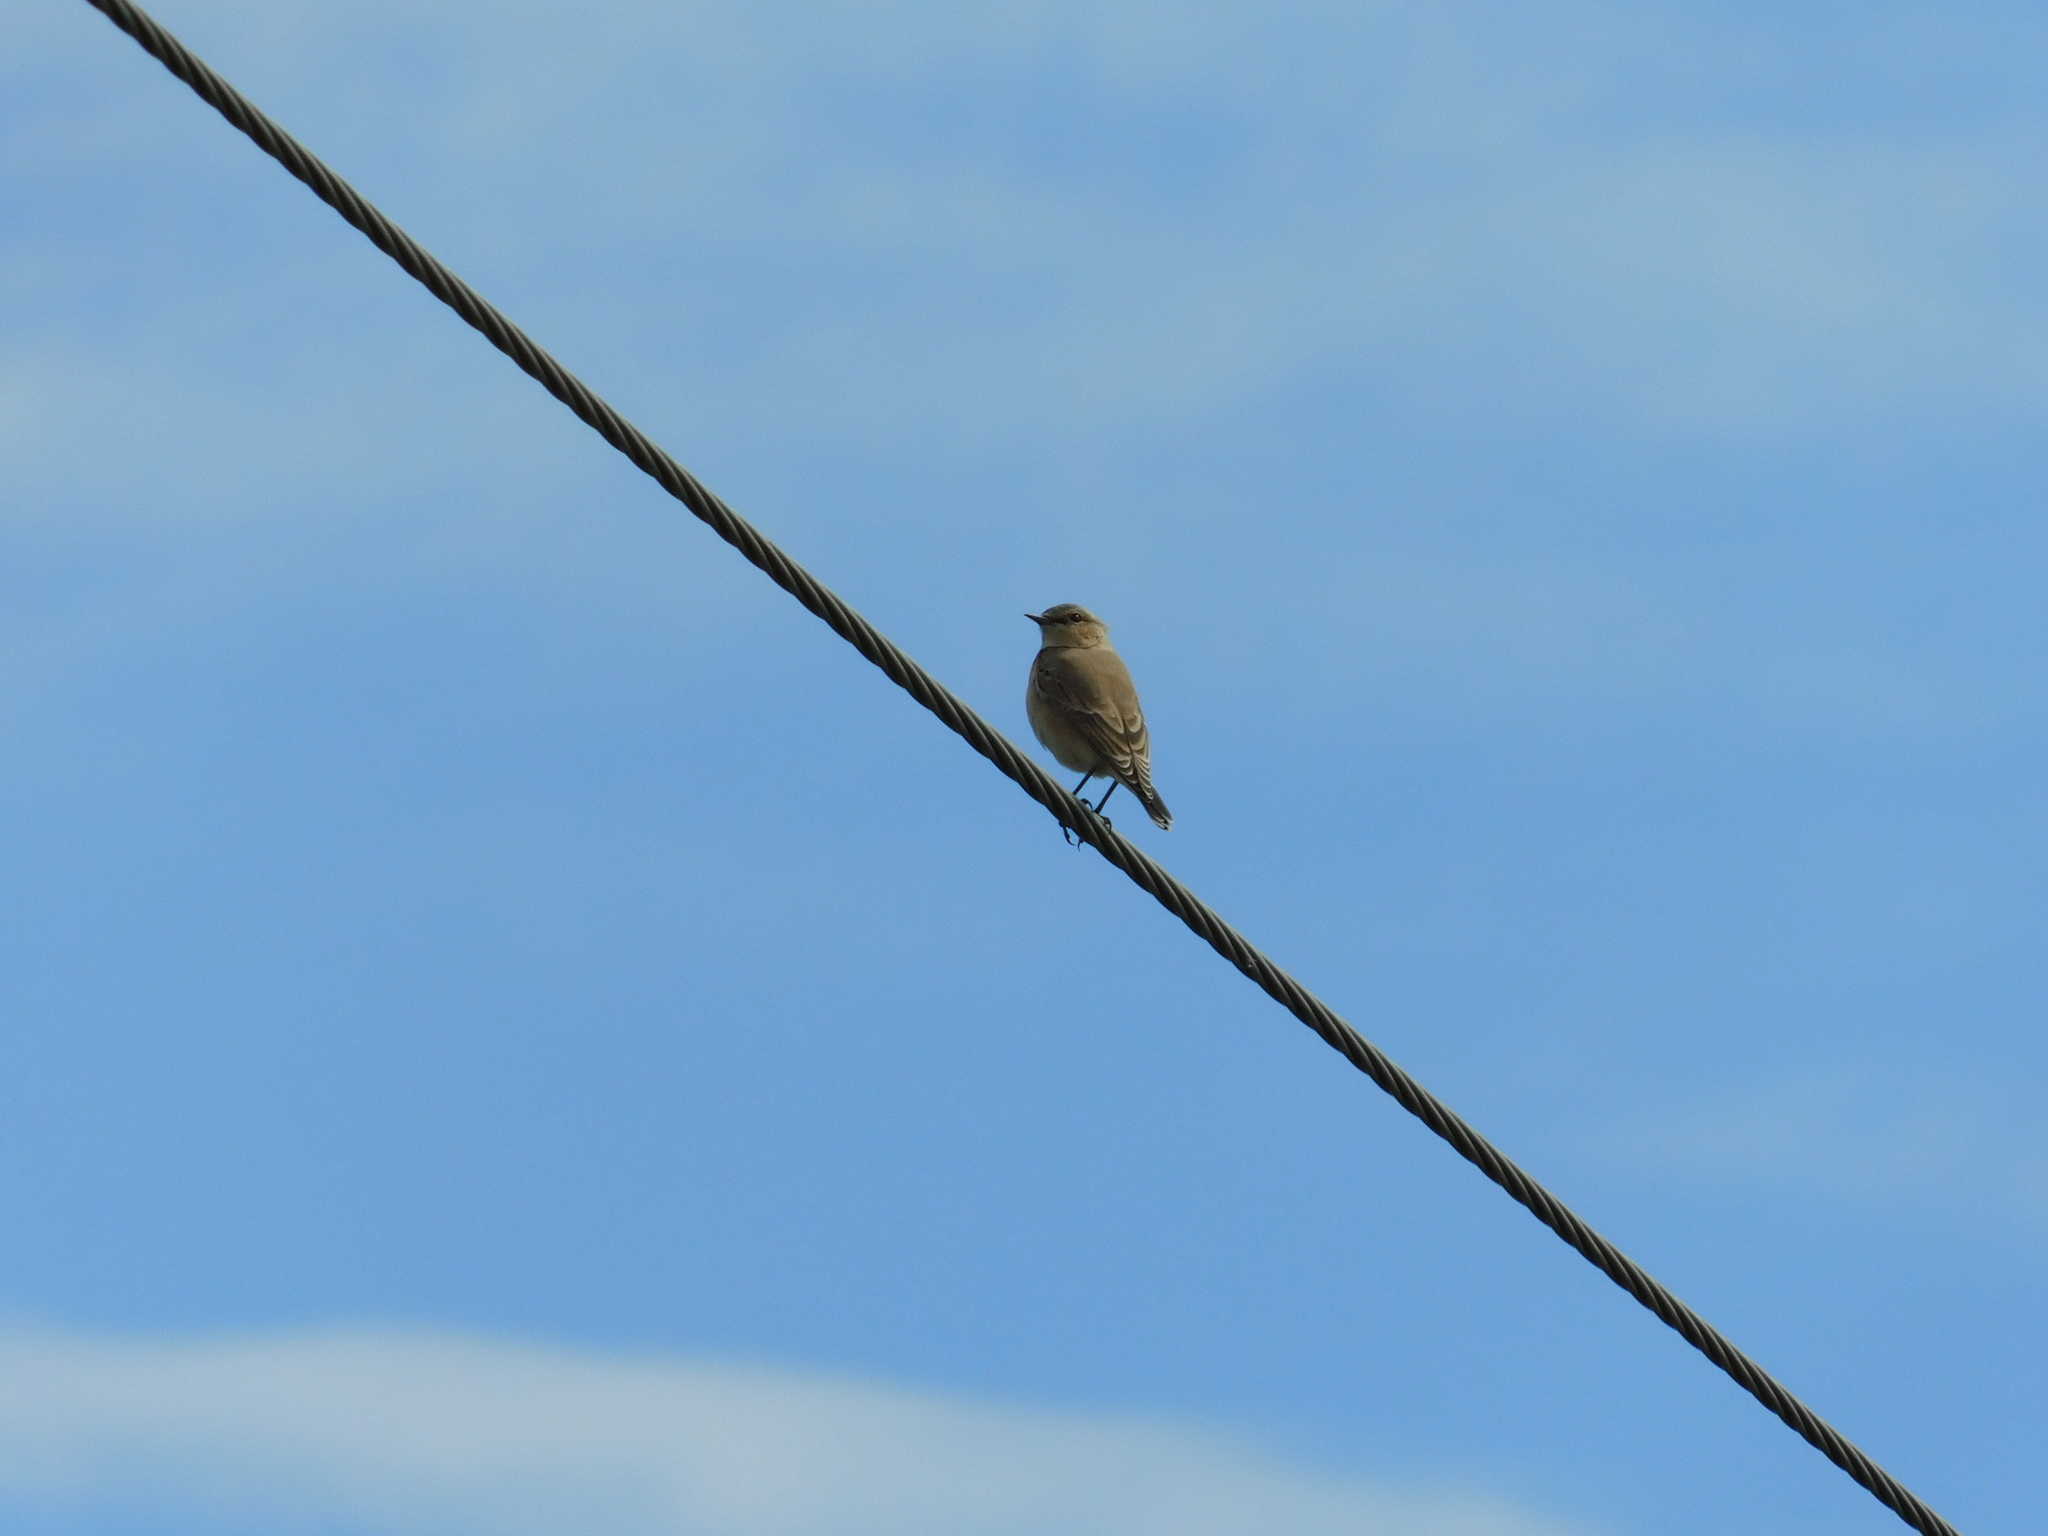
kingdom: Animalia
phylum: Chordata
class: Aves
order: Passeriformes
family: Muscicapidae
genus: Oenanthe
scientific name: Oenanthe oenanthe
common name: Northern wheatear
